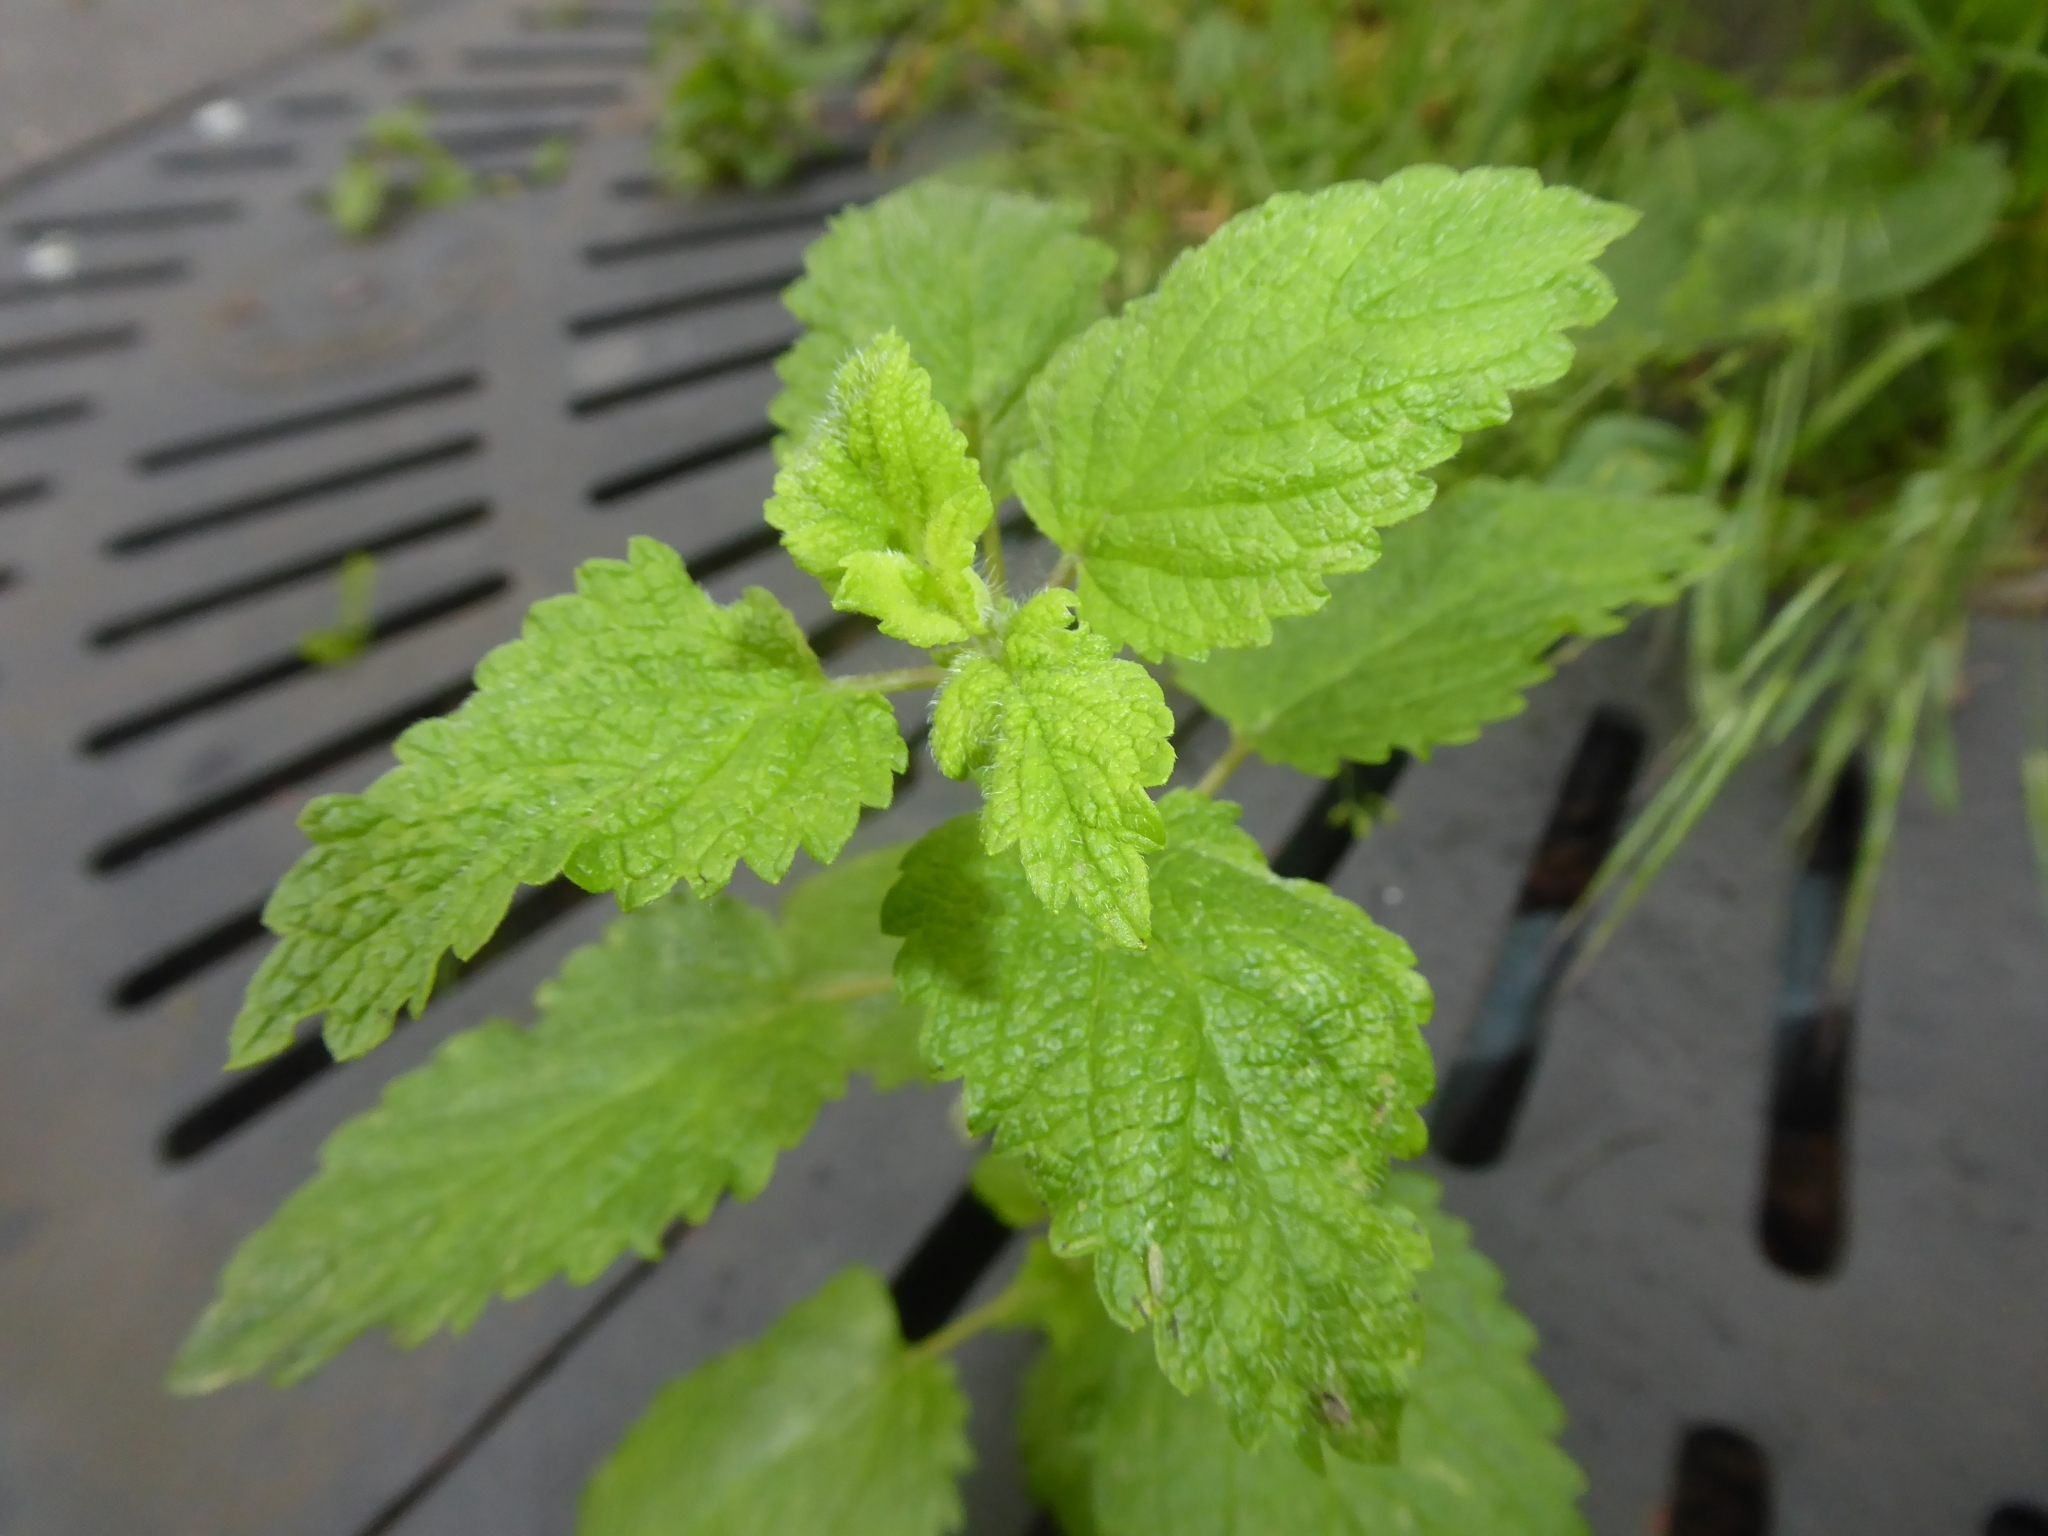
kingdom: Plantae
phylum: Tracheophyta
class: Magnoliopsida
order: Lamiales
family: Lamiaceae
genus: Melissa
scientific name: Melissa officinalis
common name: Balm
